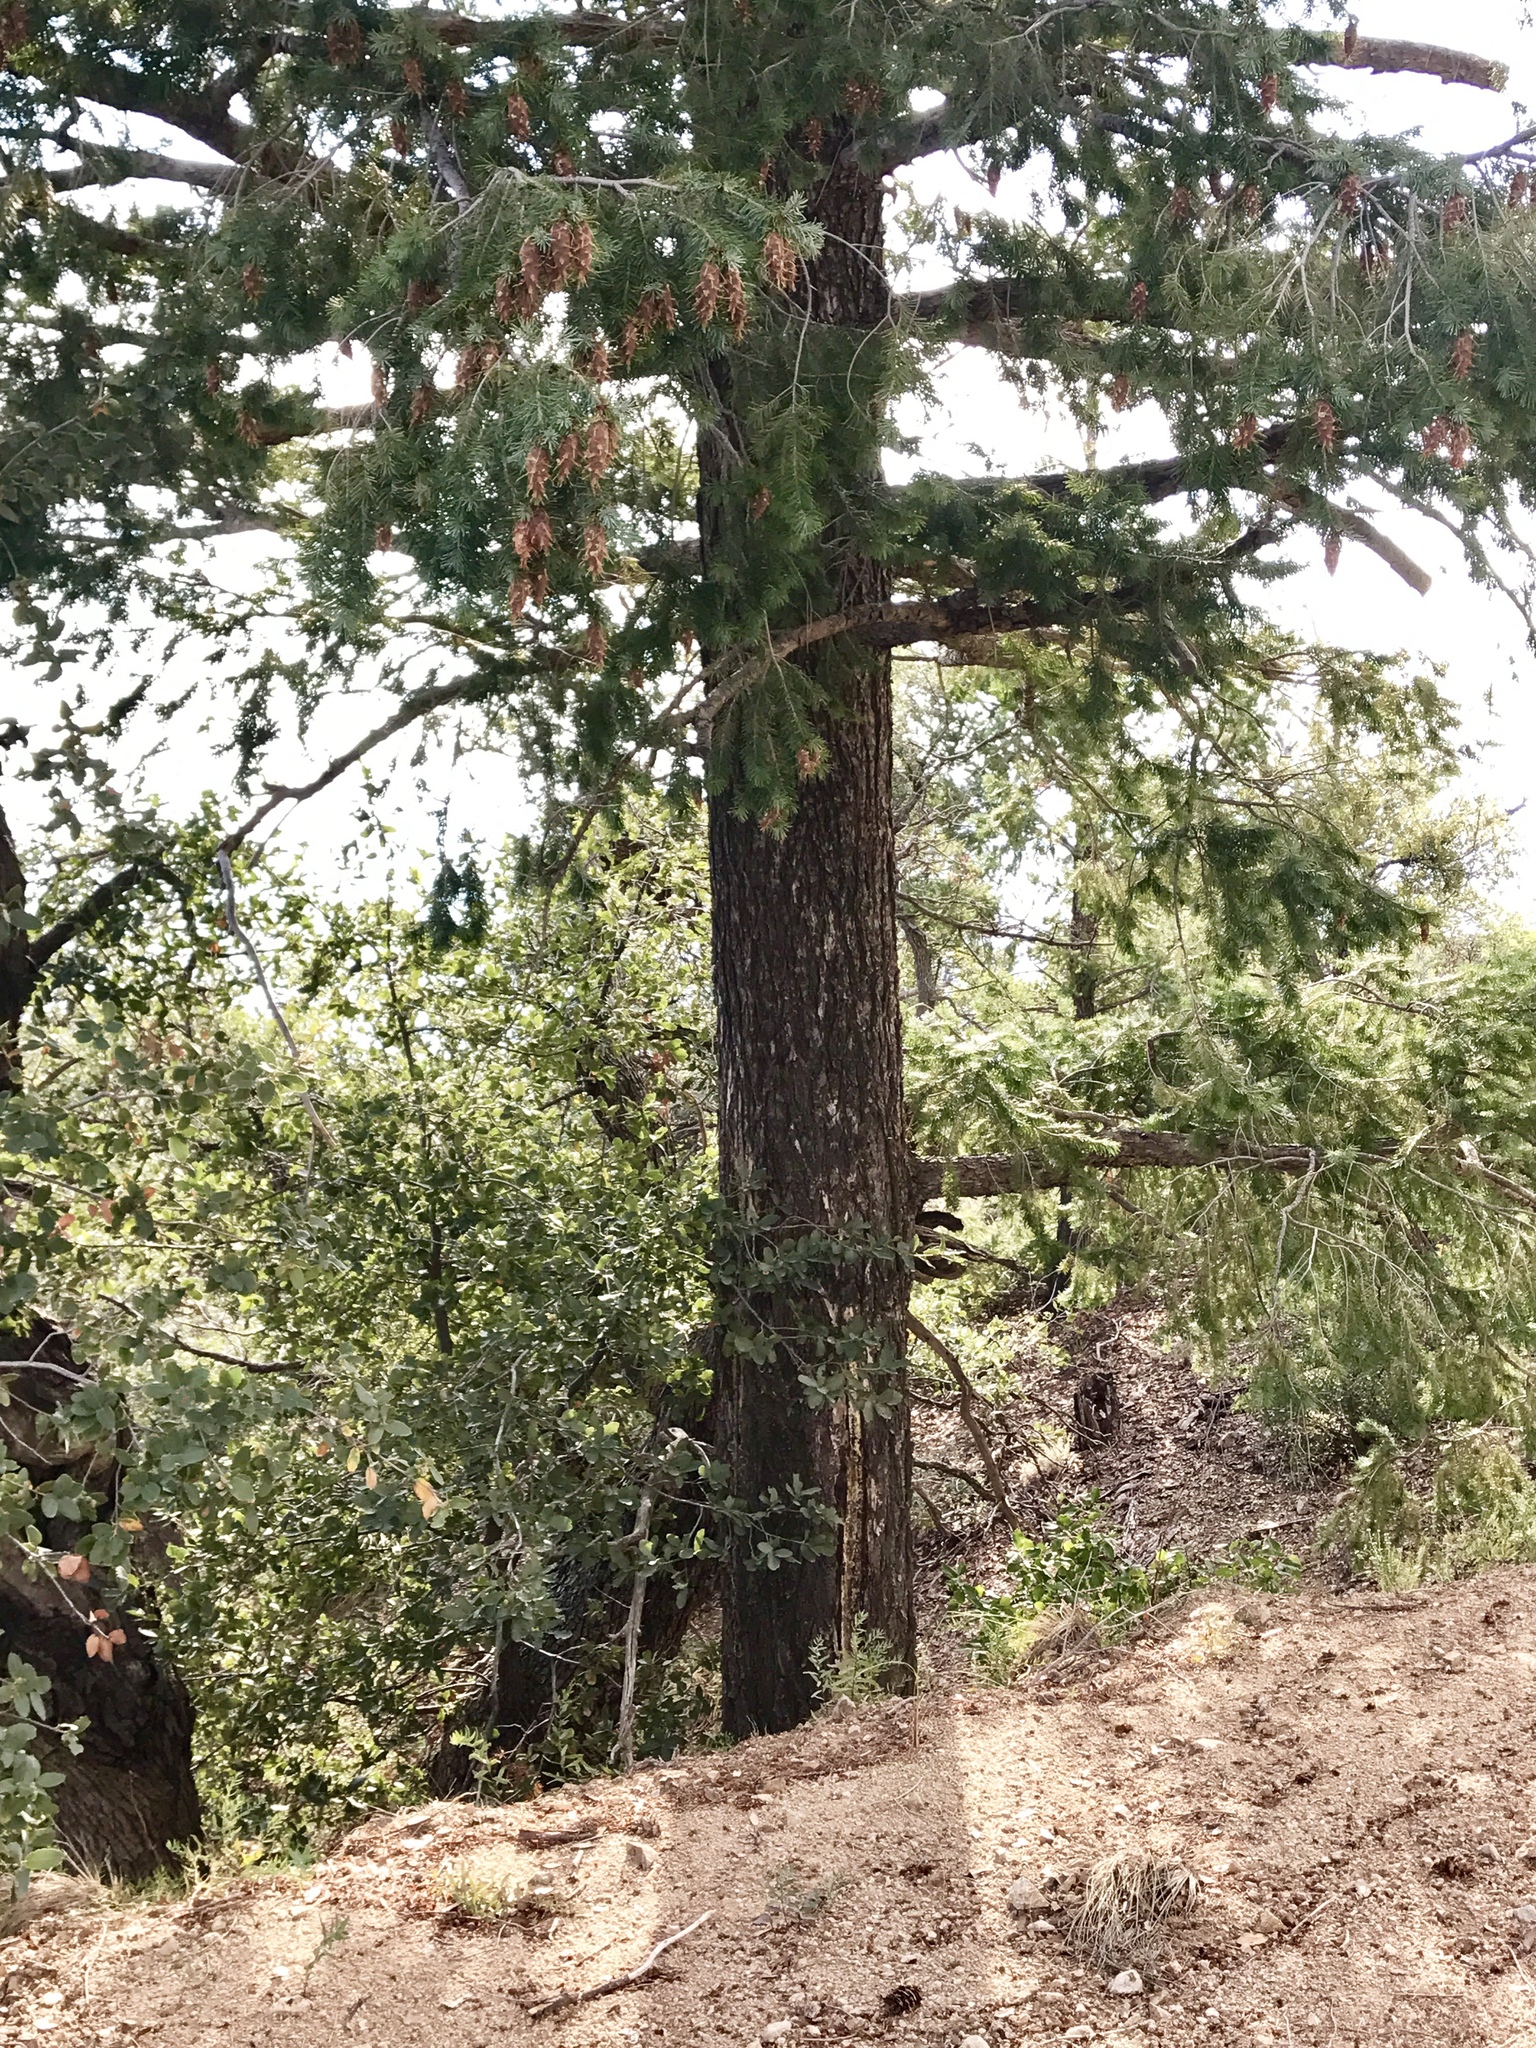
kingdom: Plantae
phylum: Tracheophyta
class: Pinopsida
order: Pinales
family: Pinaceae
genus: Pseudotsuga
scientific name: Pseudotsuga menziesii
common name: Douglas fir
